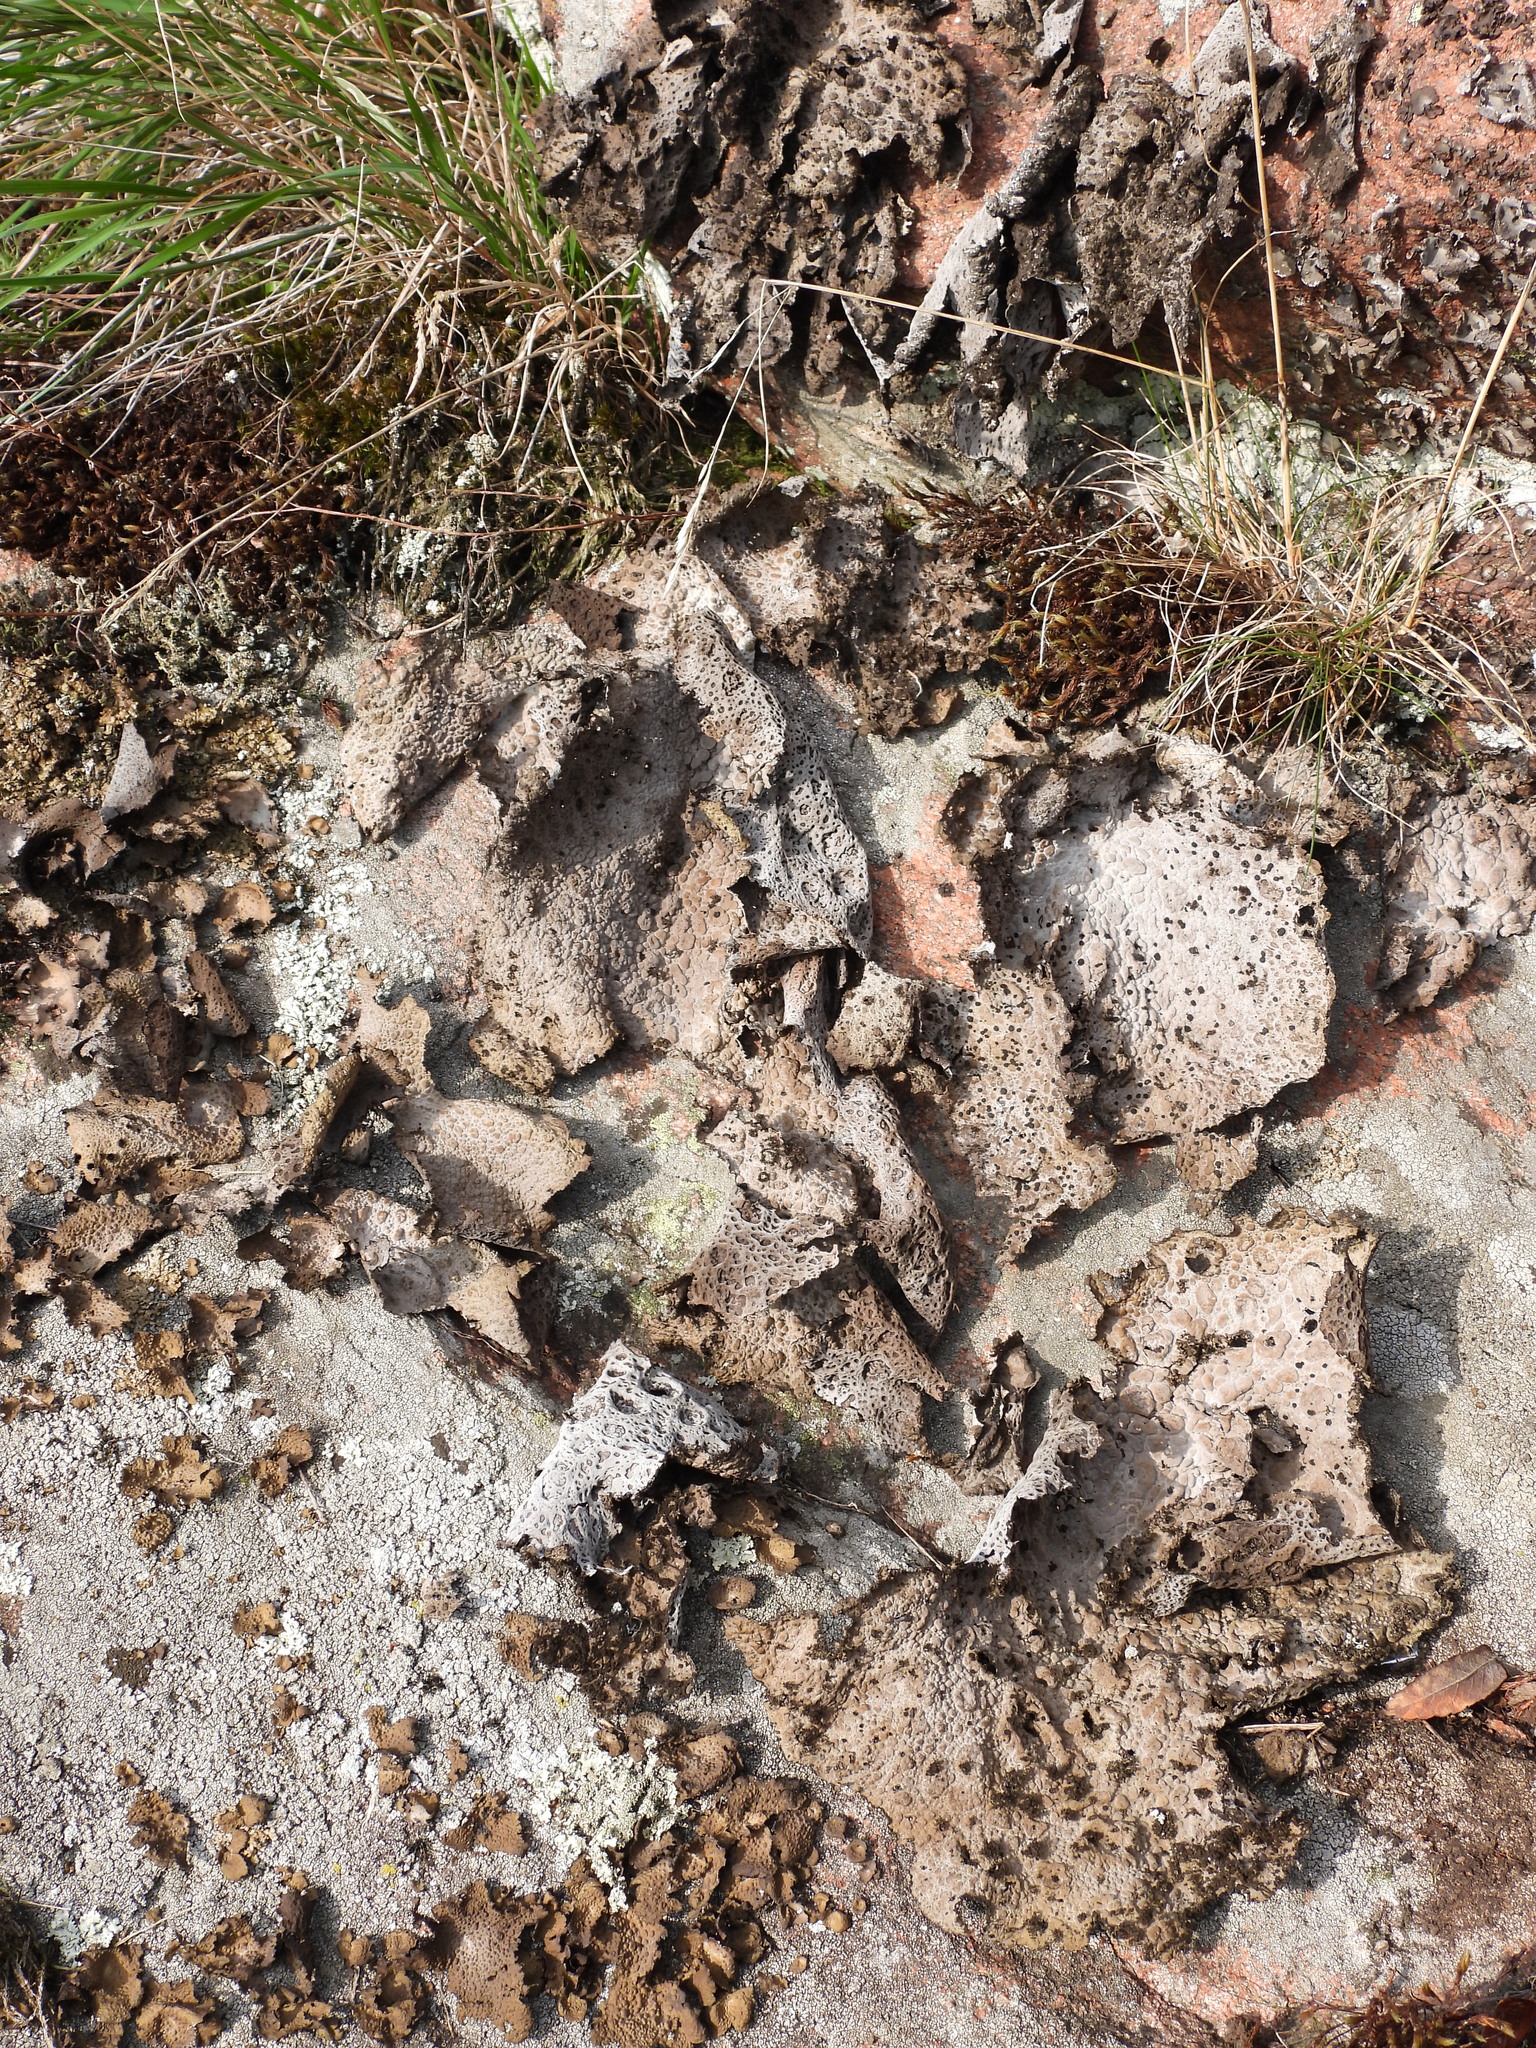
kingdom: Fungi
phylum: Ascomycota
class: Lecanoromycetes
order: Umbilicariales
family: Umbilicariaceae
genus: Lasallia
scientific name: Lasallia pustulata
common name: Blistered toadskin lichen
